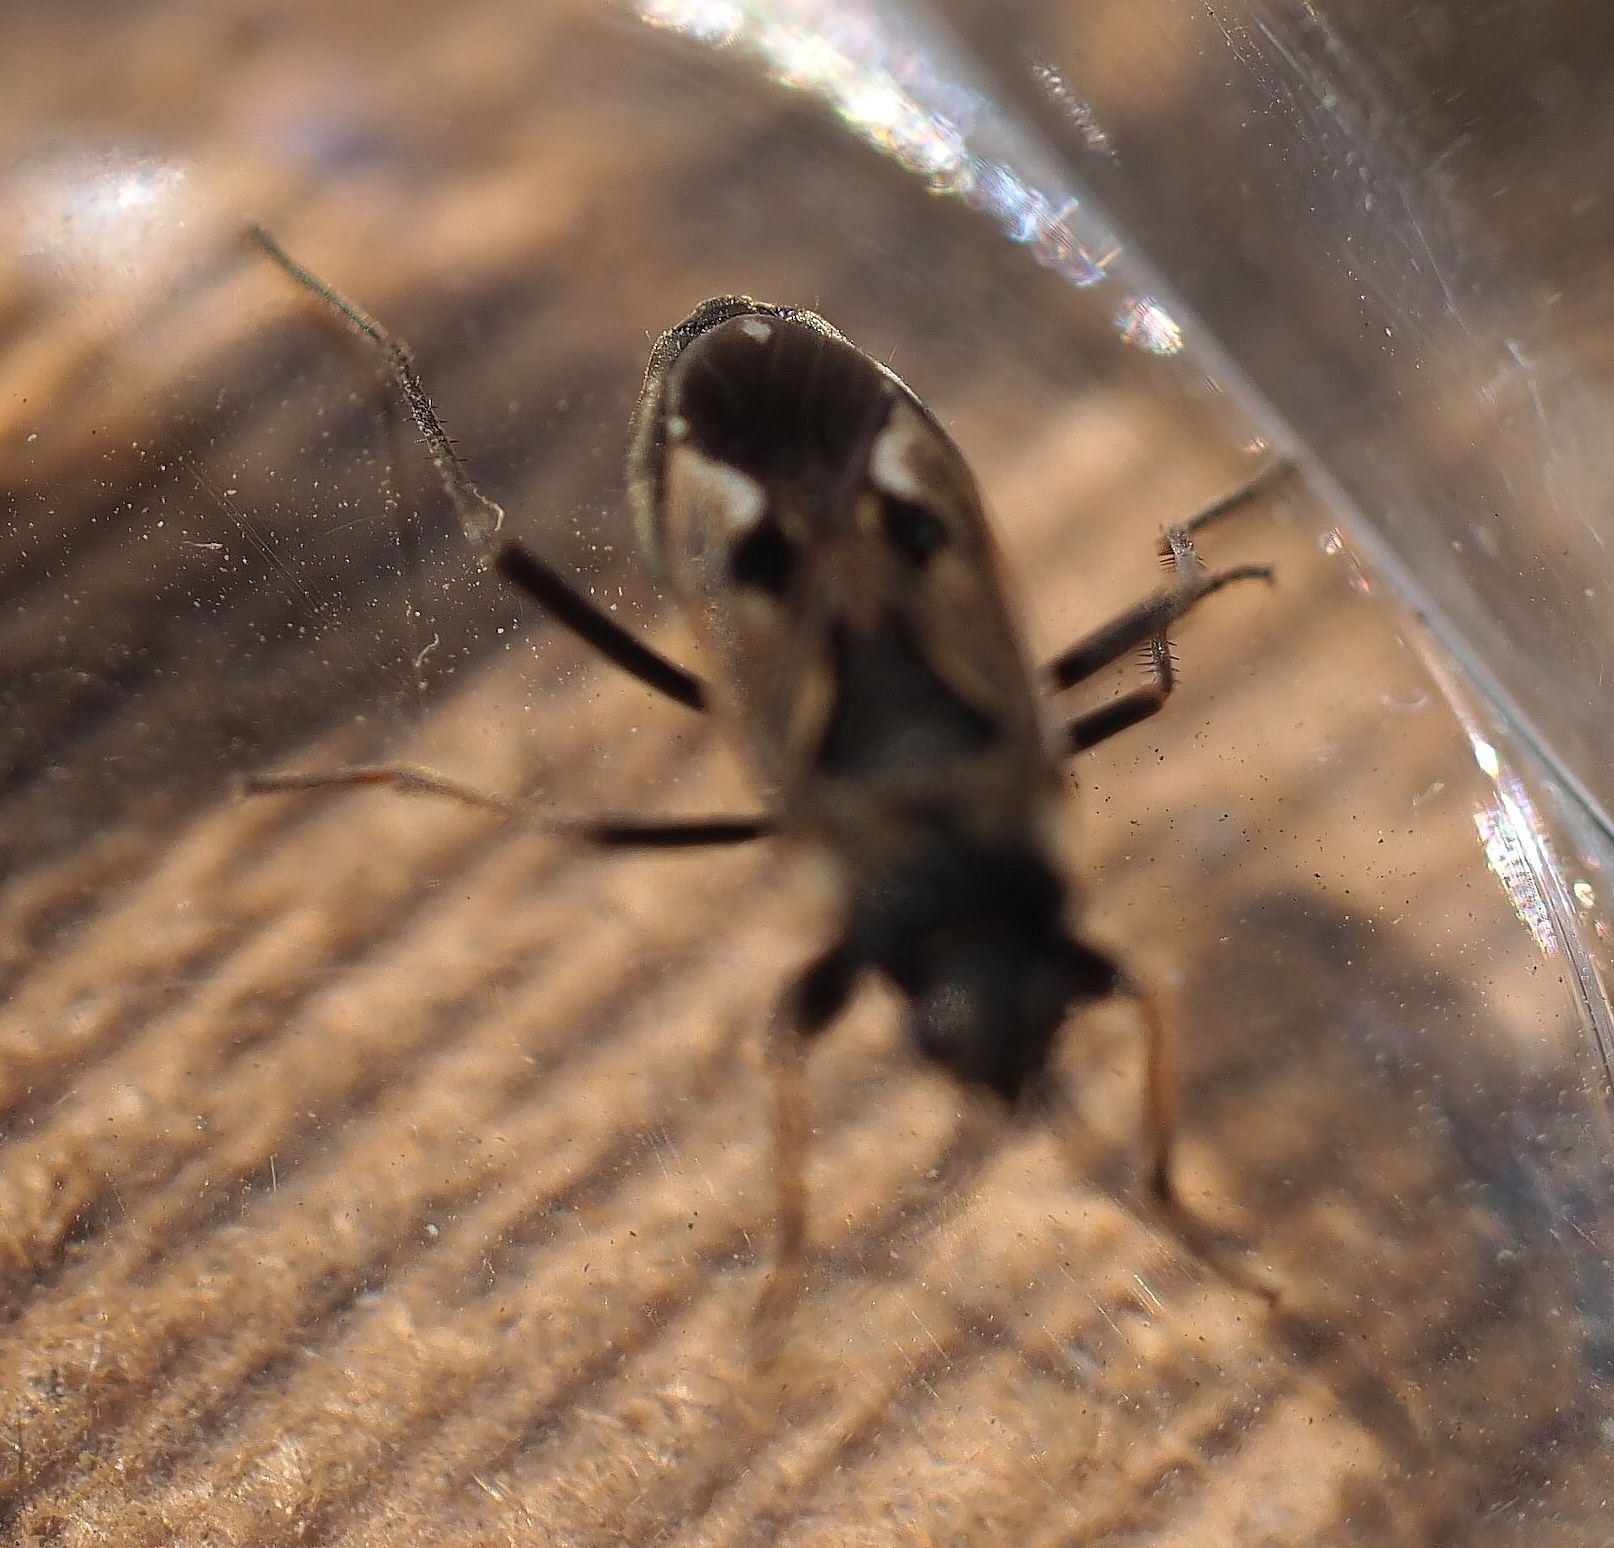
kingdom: Animalia
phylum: Arthropoda
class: Insecta
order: Hemiptera
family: Rhyparochromidae
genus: Rhyparochromus
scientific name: Rhyparochromus vulgaris
